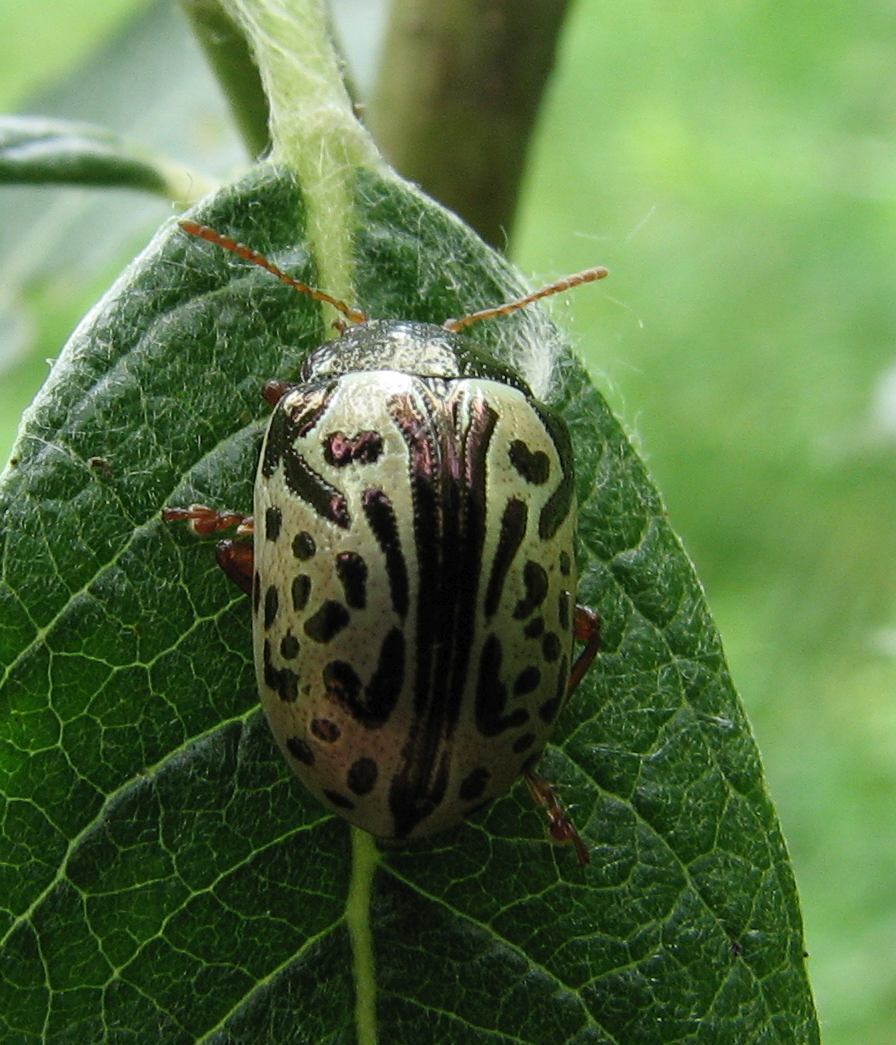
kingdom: Animalia
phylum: Arthropoda
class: Insecta
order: Coleoptera
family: Chrysomelidae
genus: Calligrapha
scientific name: Calligrapha vicina
